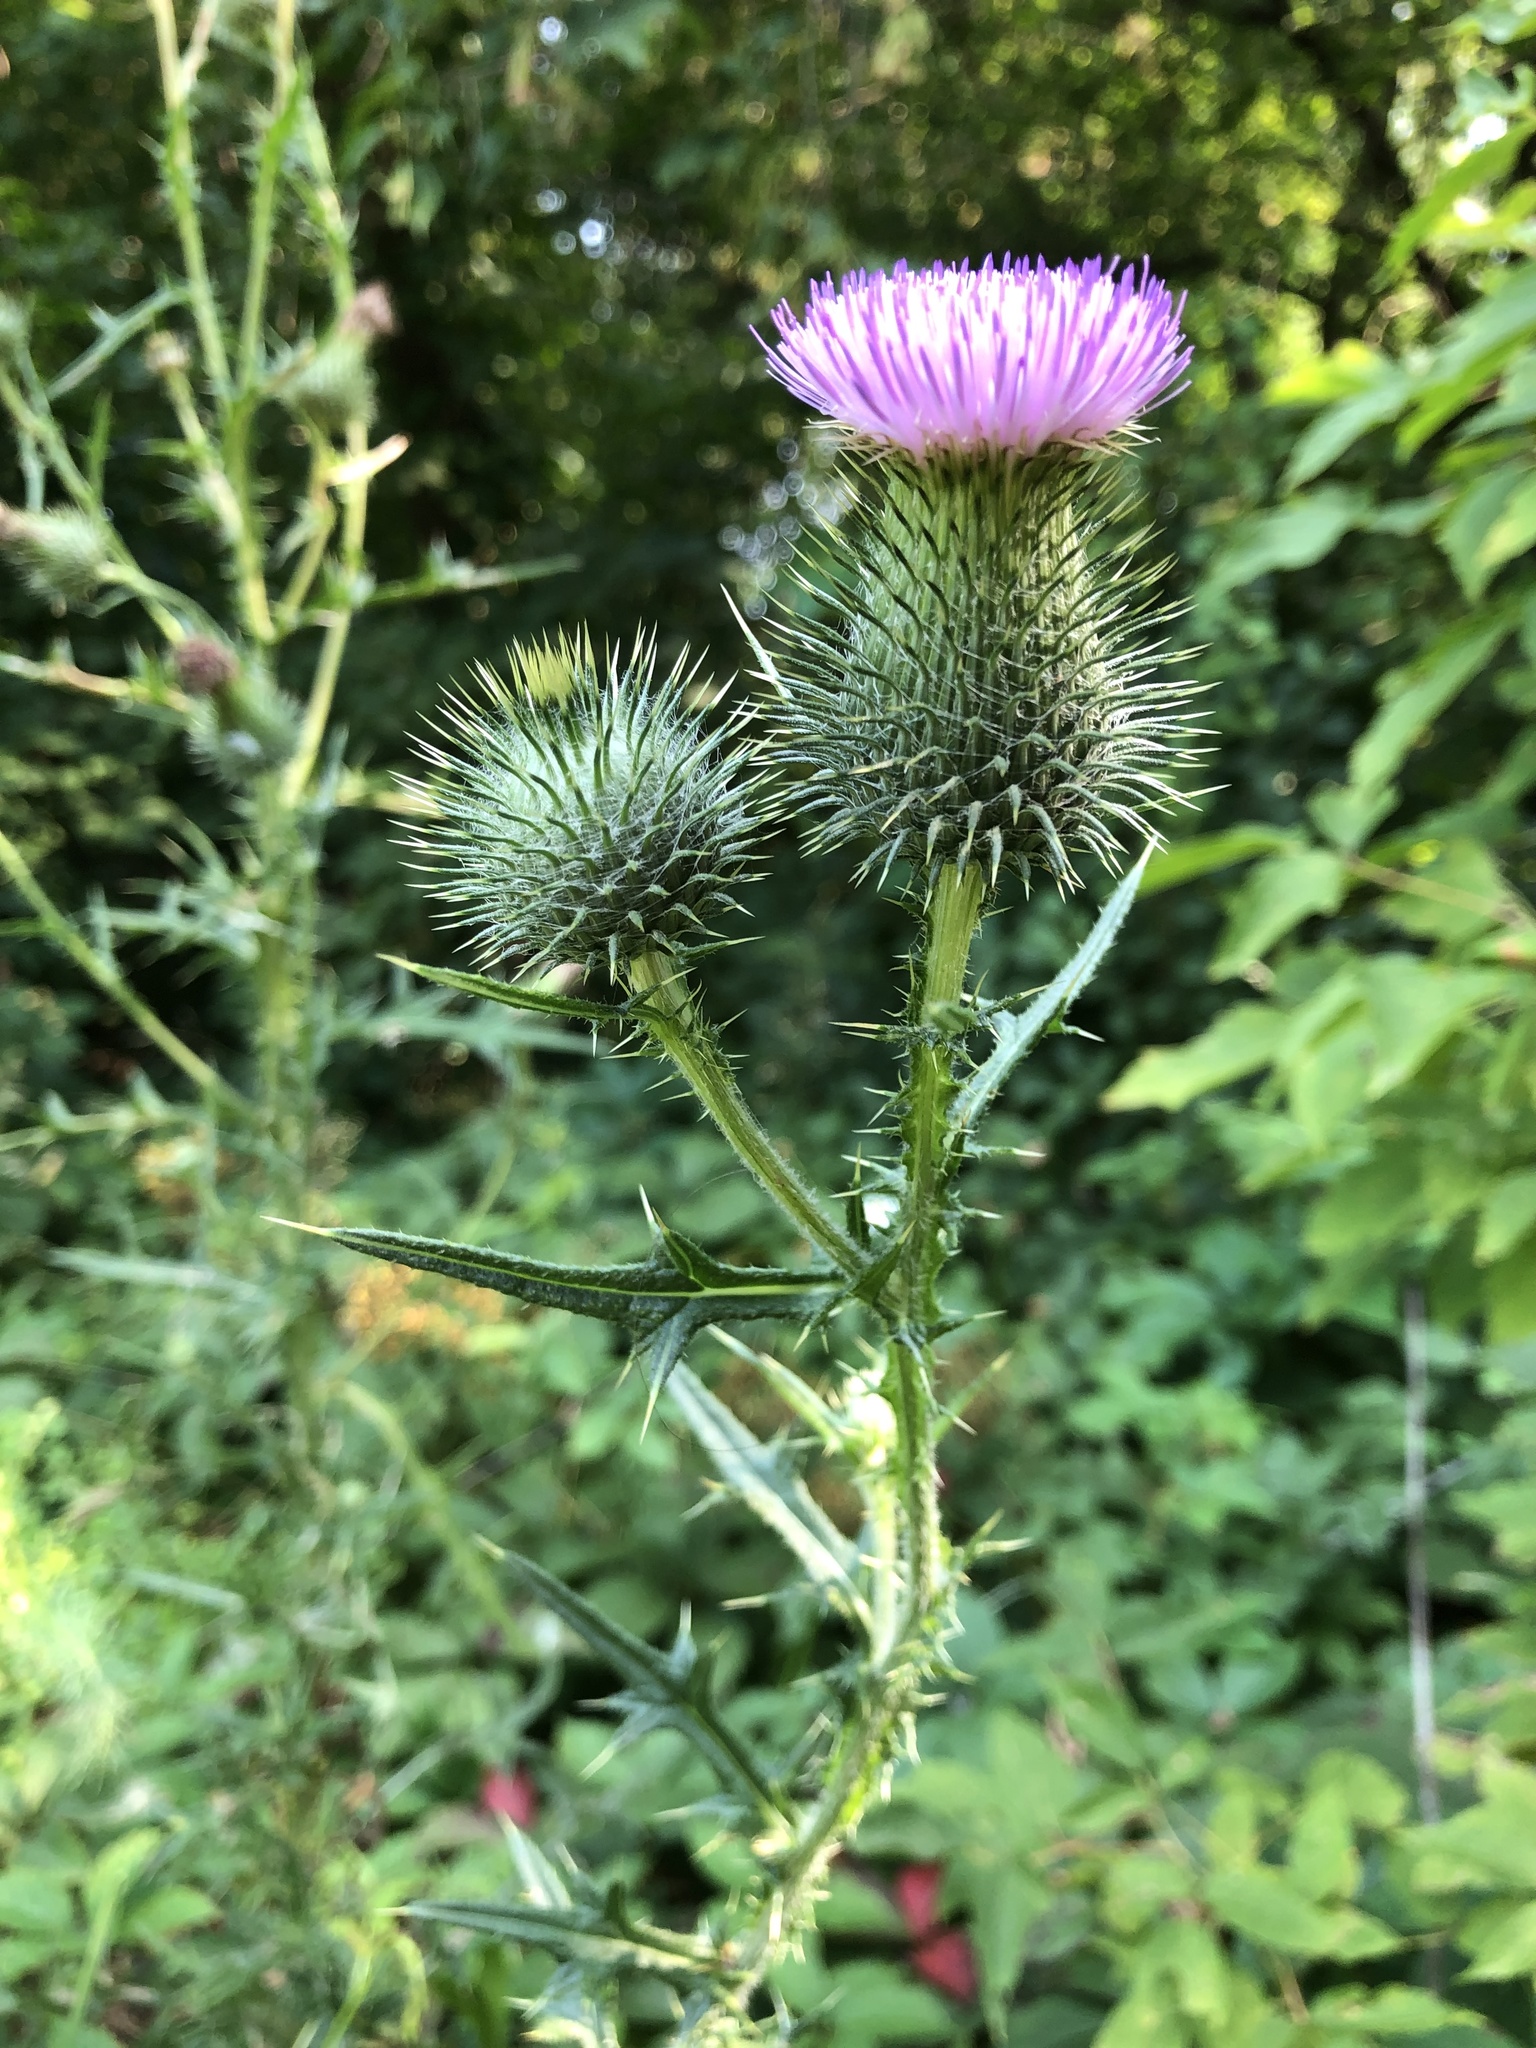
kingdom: Plantae
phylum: Tracheophyta
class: Magnoliopsida
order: Asterales
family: Asteraceae
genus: Cirsium
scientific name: Cirsium vulgare
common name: Bull thistle
